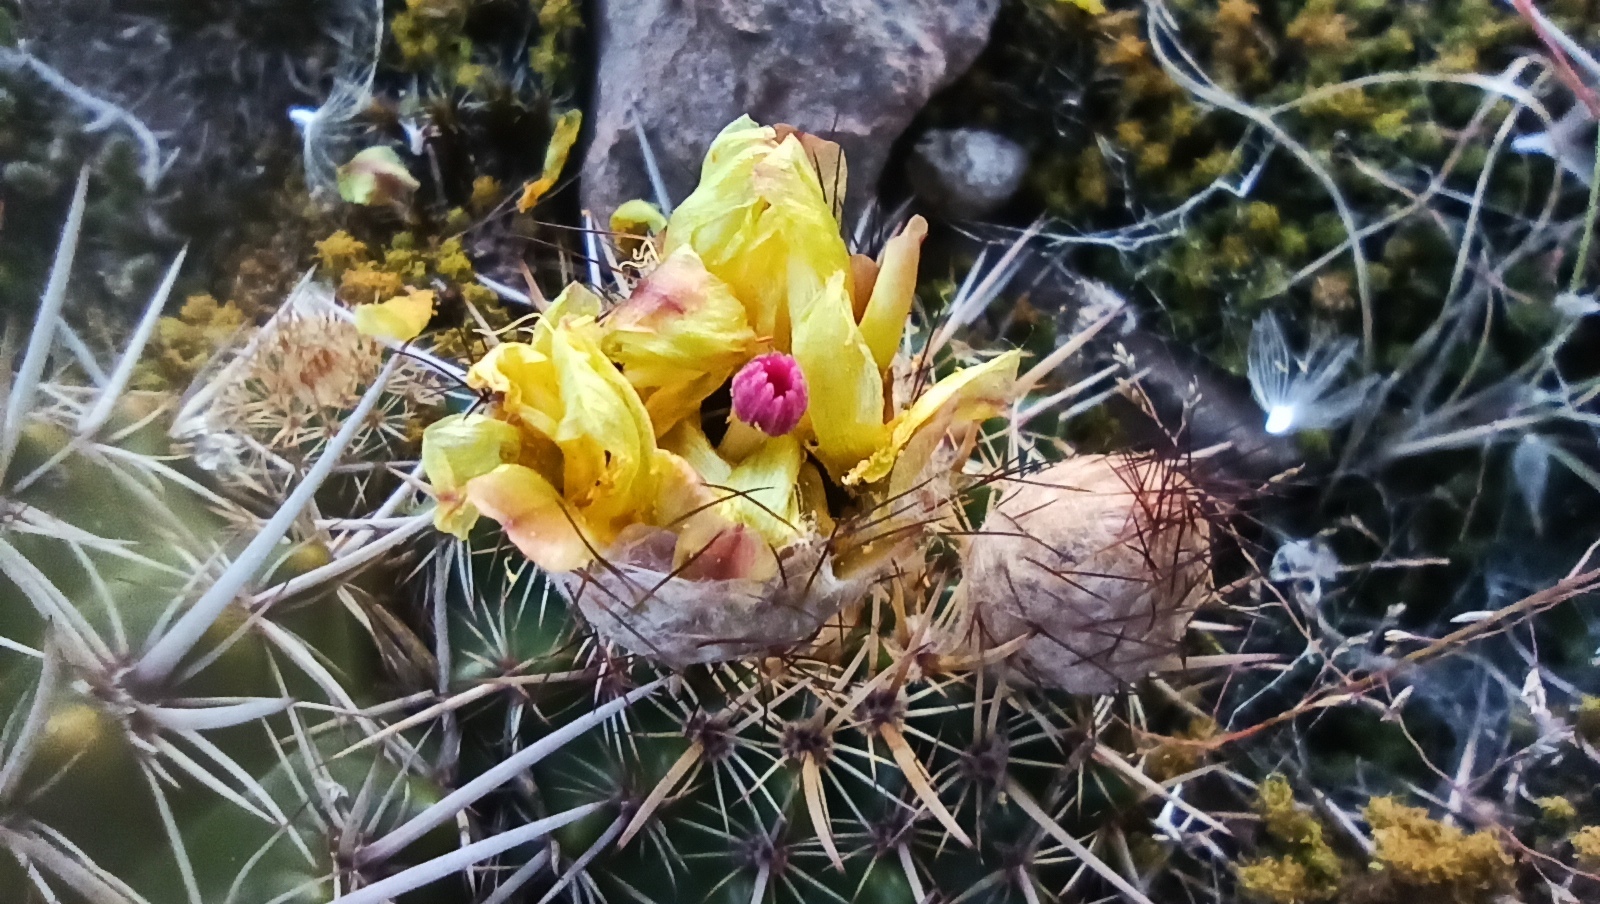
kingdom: Plantae
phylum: Tracheophyta
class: Magnoliopsida
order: Caryophyllales
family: Cactaceae
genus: Parodia
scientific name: Parodia mammulosa
